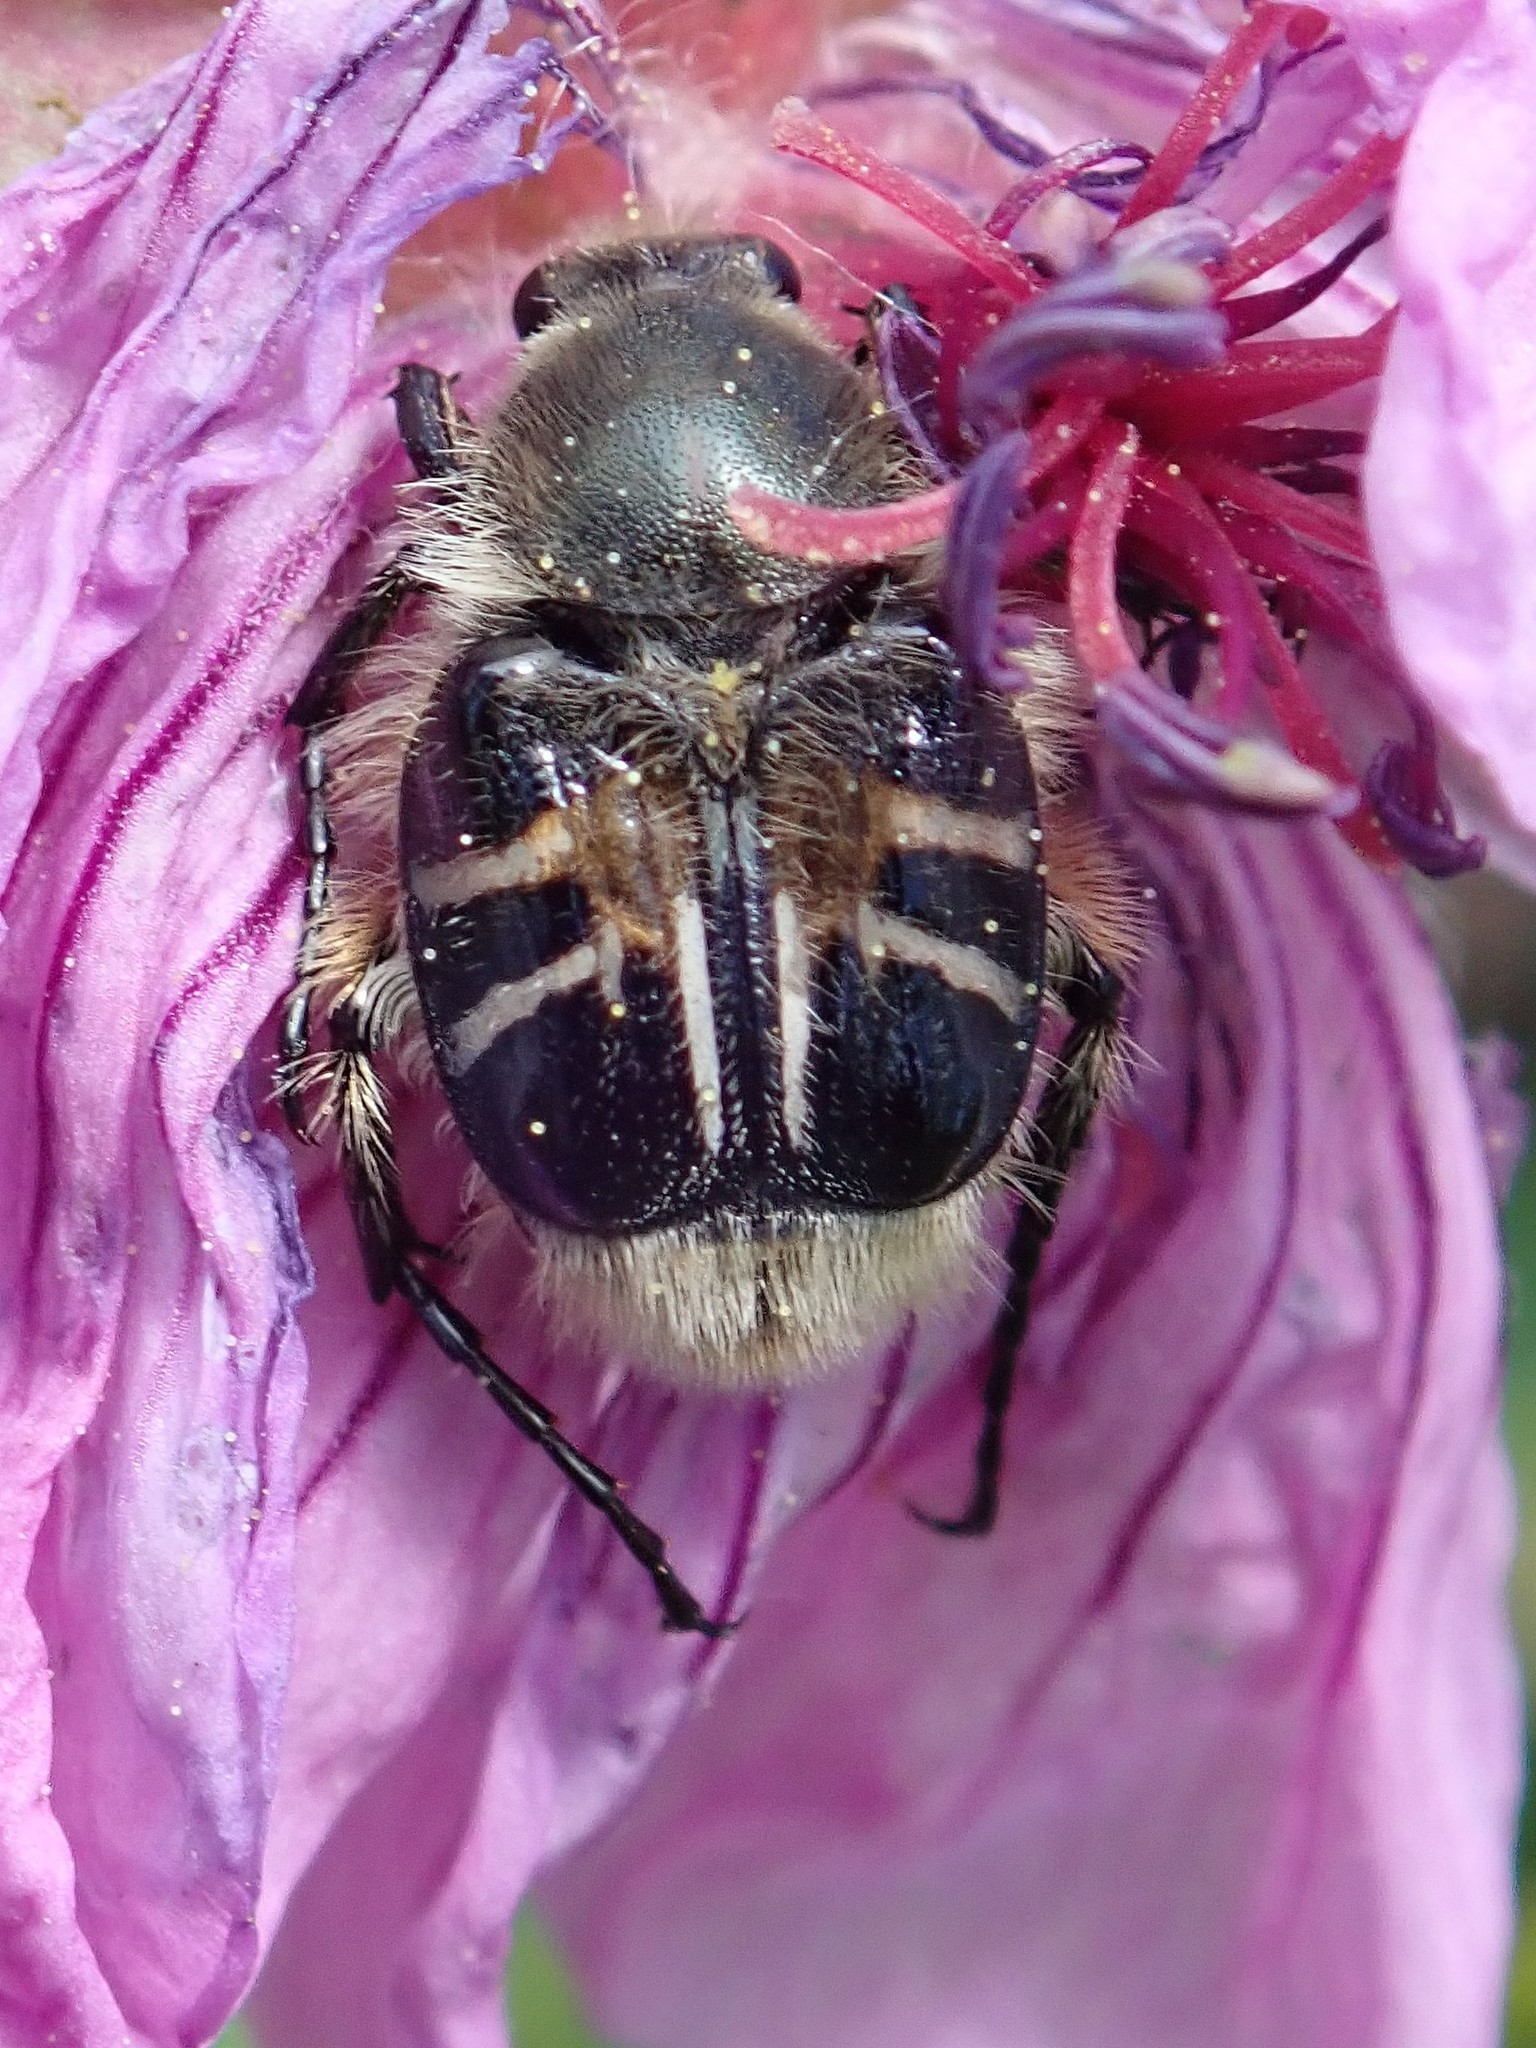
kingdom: Animalia
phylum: Arthropoda
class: Insecta
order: Coleoptera
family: Scarabaeidae
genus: Trichiotinus
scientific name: Trichiotinus assimilis
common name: Bee-mimic beetle
